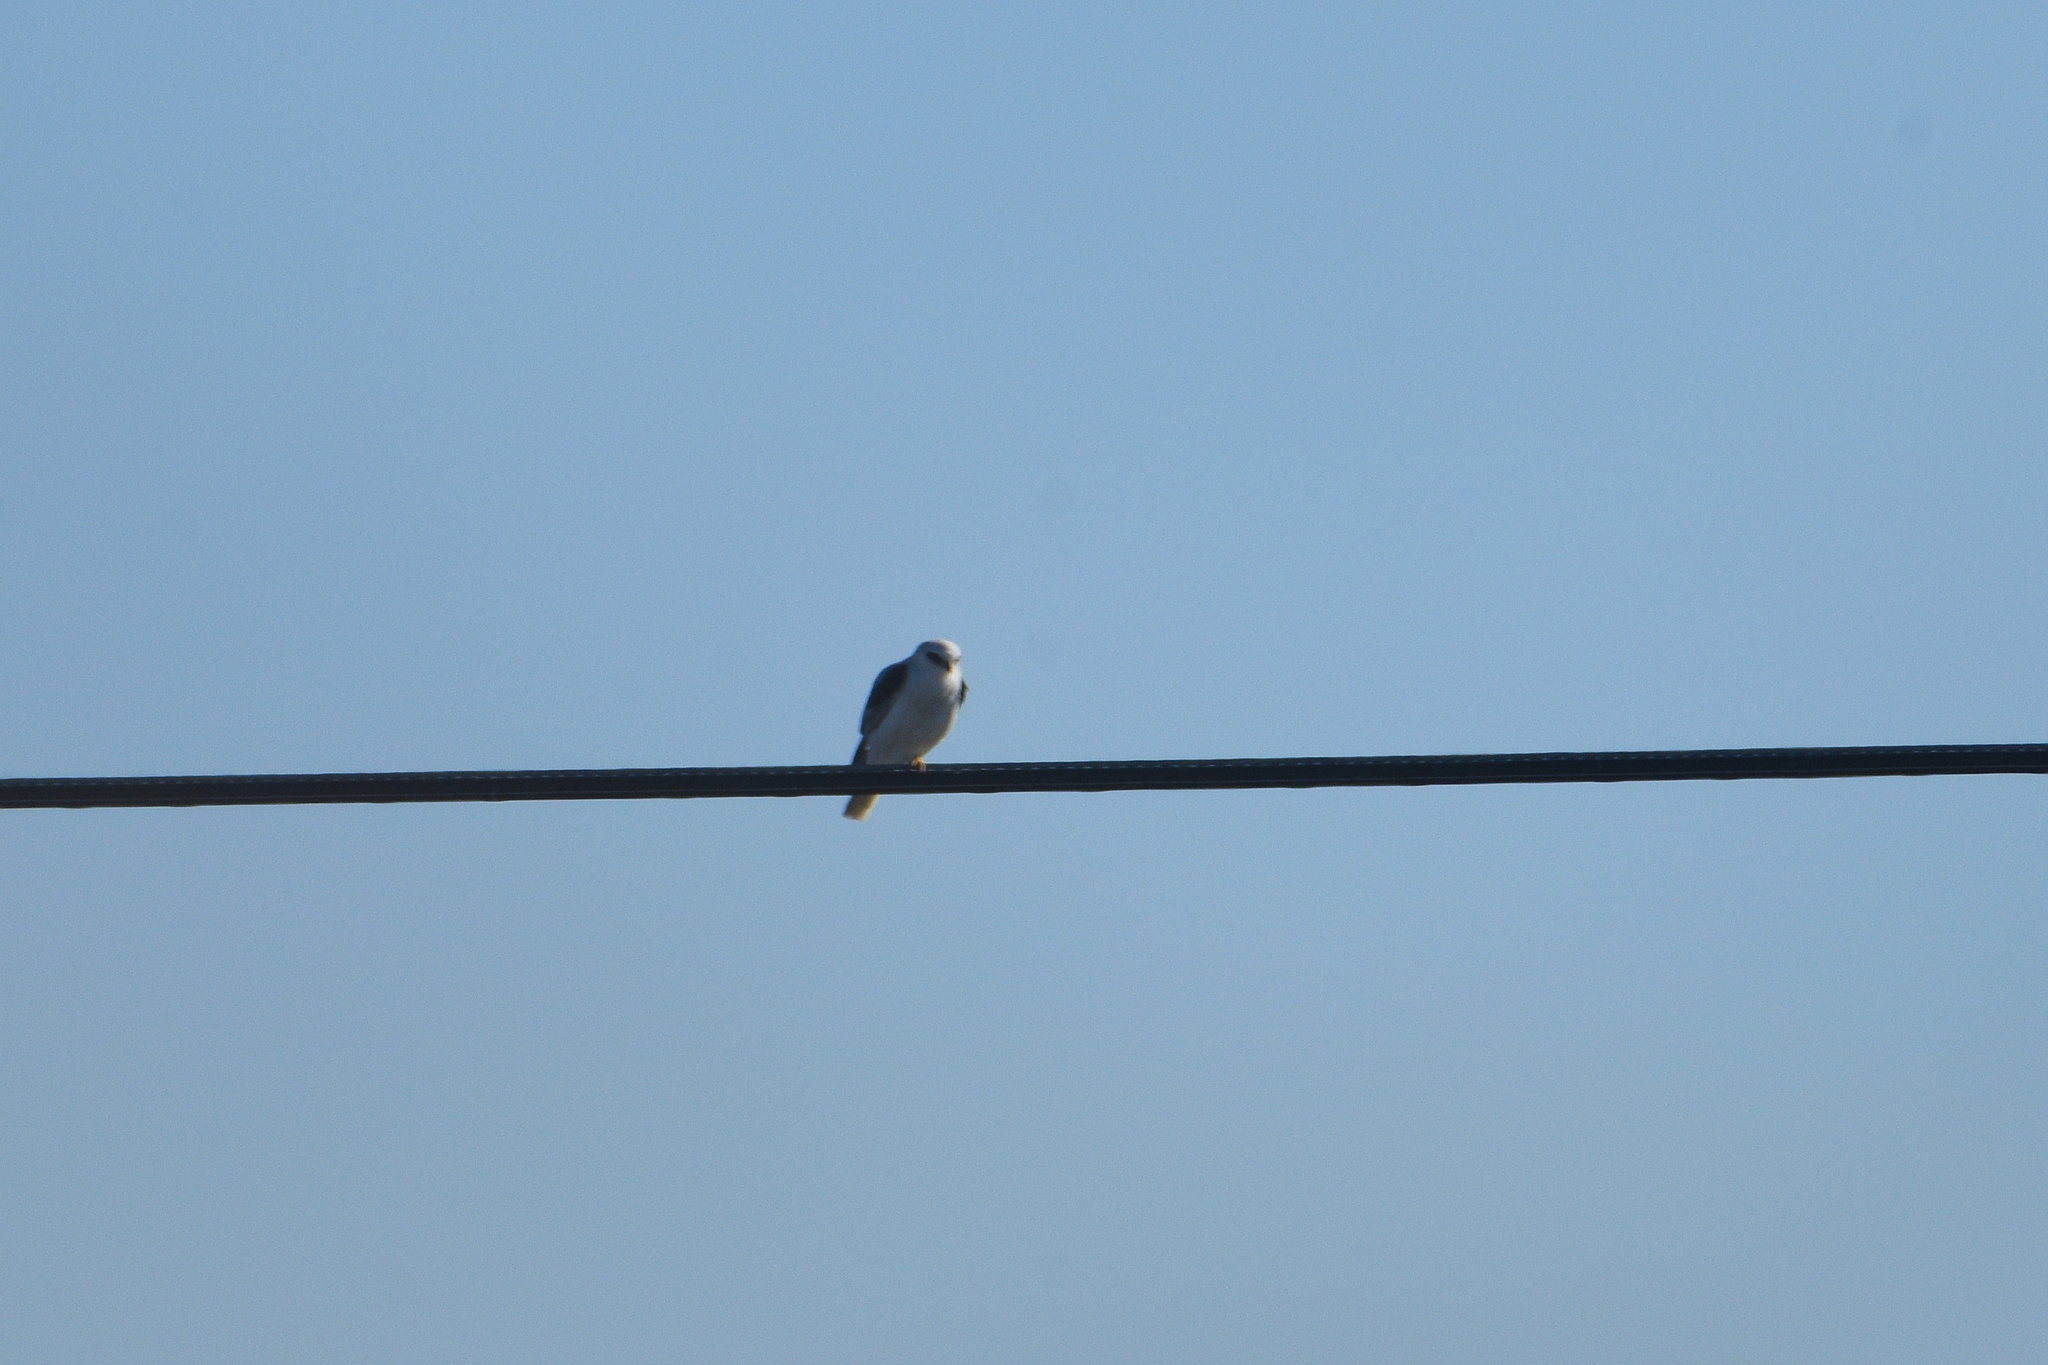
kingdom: Animalia
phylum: Chordata
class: Aves
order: Accipitriformes
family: Accipitridae
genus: Elanus
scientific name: Elanus leucurus
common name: White-tailed kite
